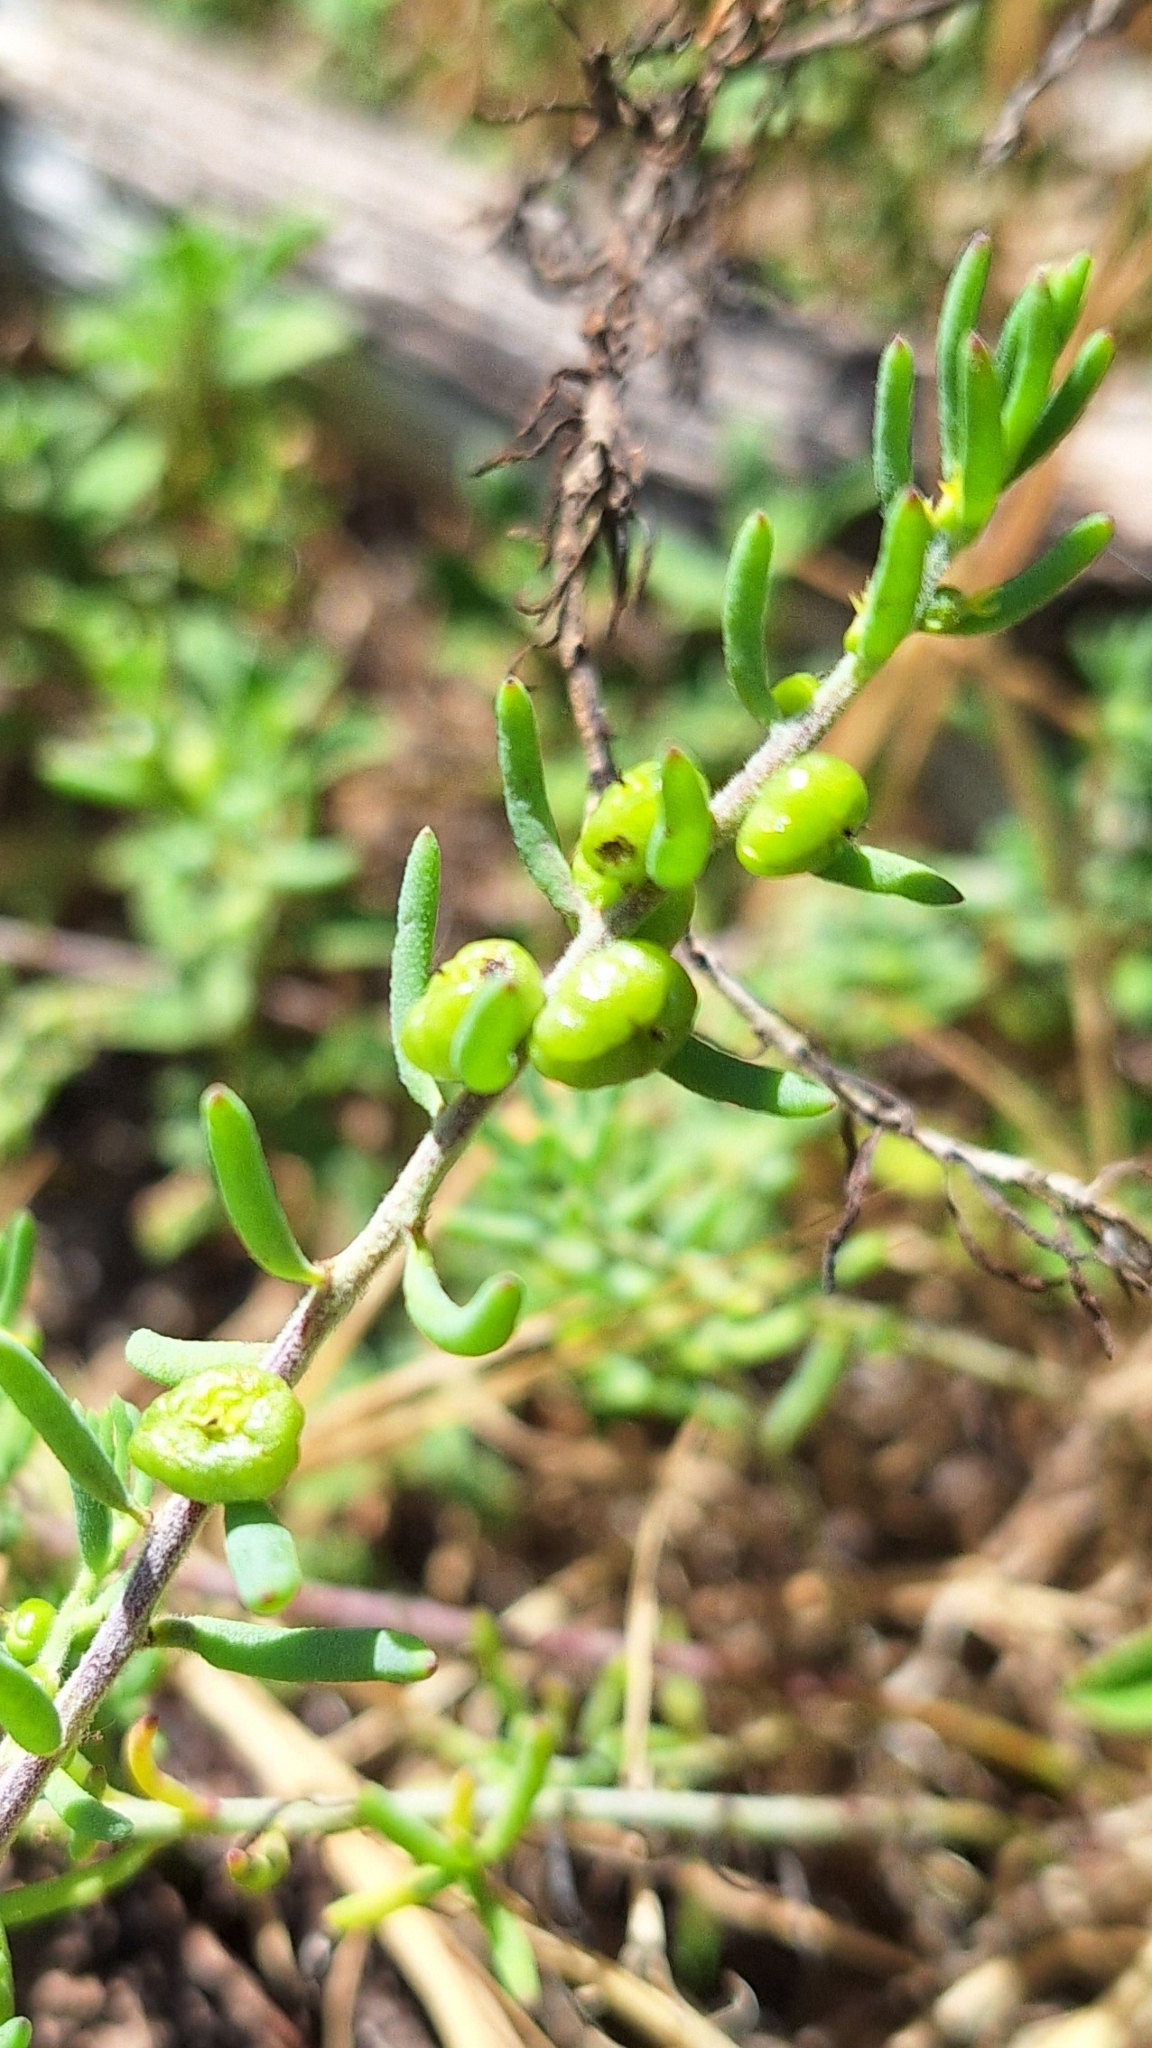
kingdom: Plantae
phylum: Tracheophyta
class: Magnoliopsida
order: Caryophyllales
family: Amaranthaceae
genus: Enchylaena
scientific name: Enchylaena tomentosa
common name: Ruby saltbush
